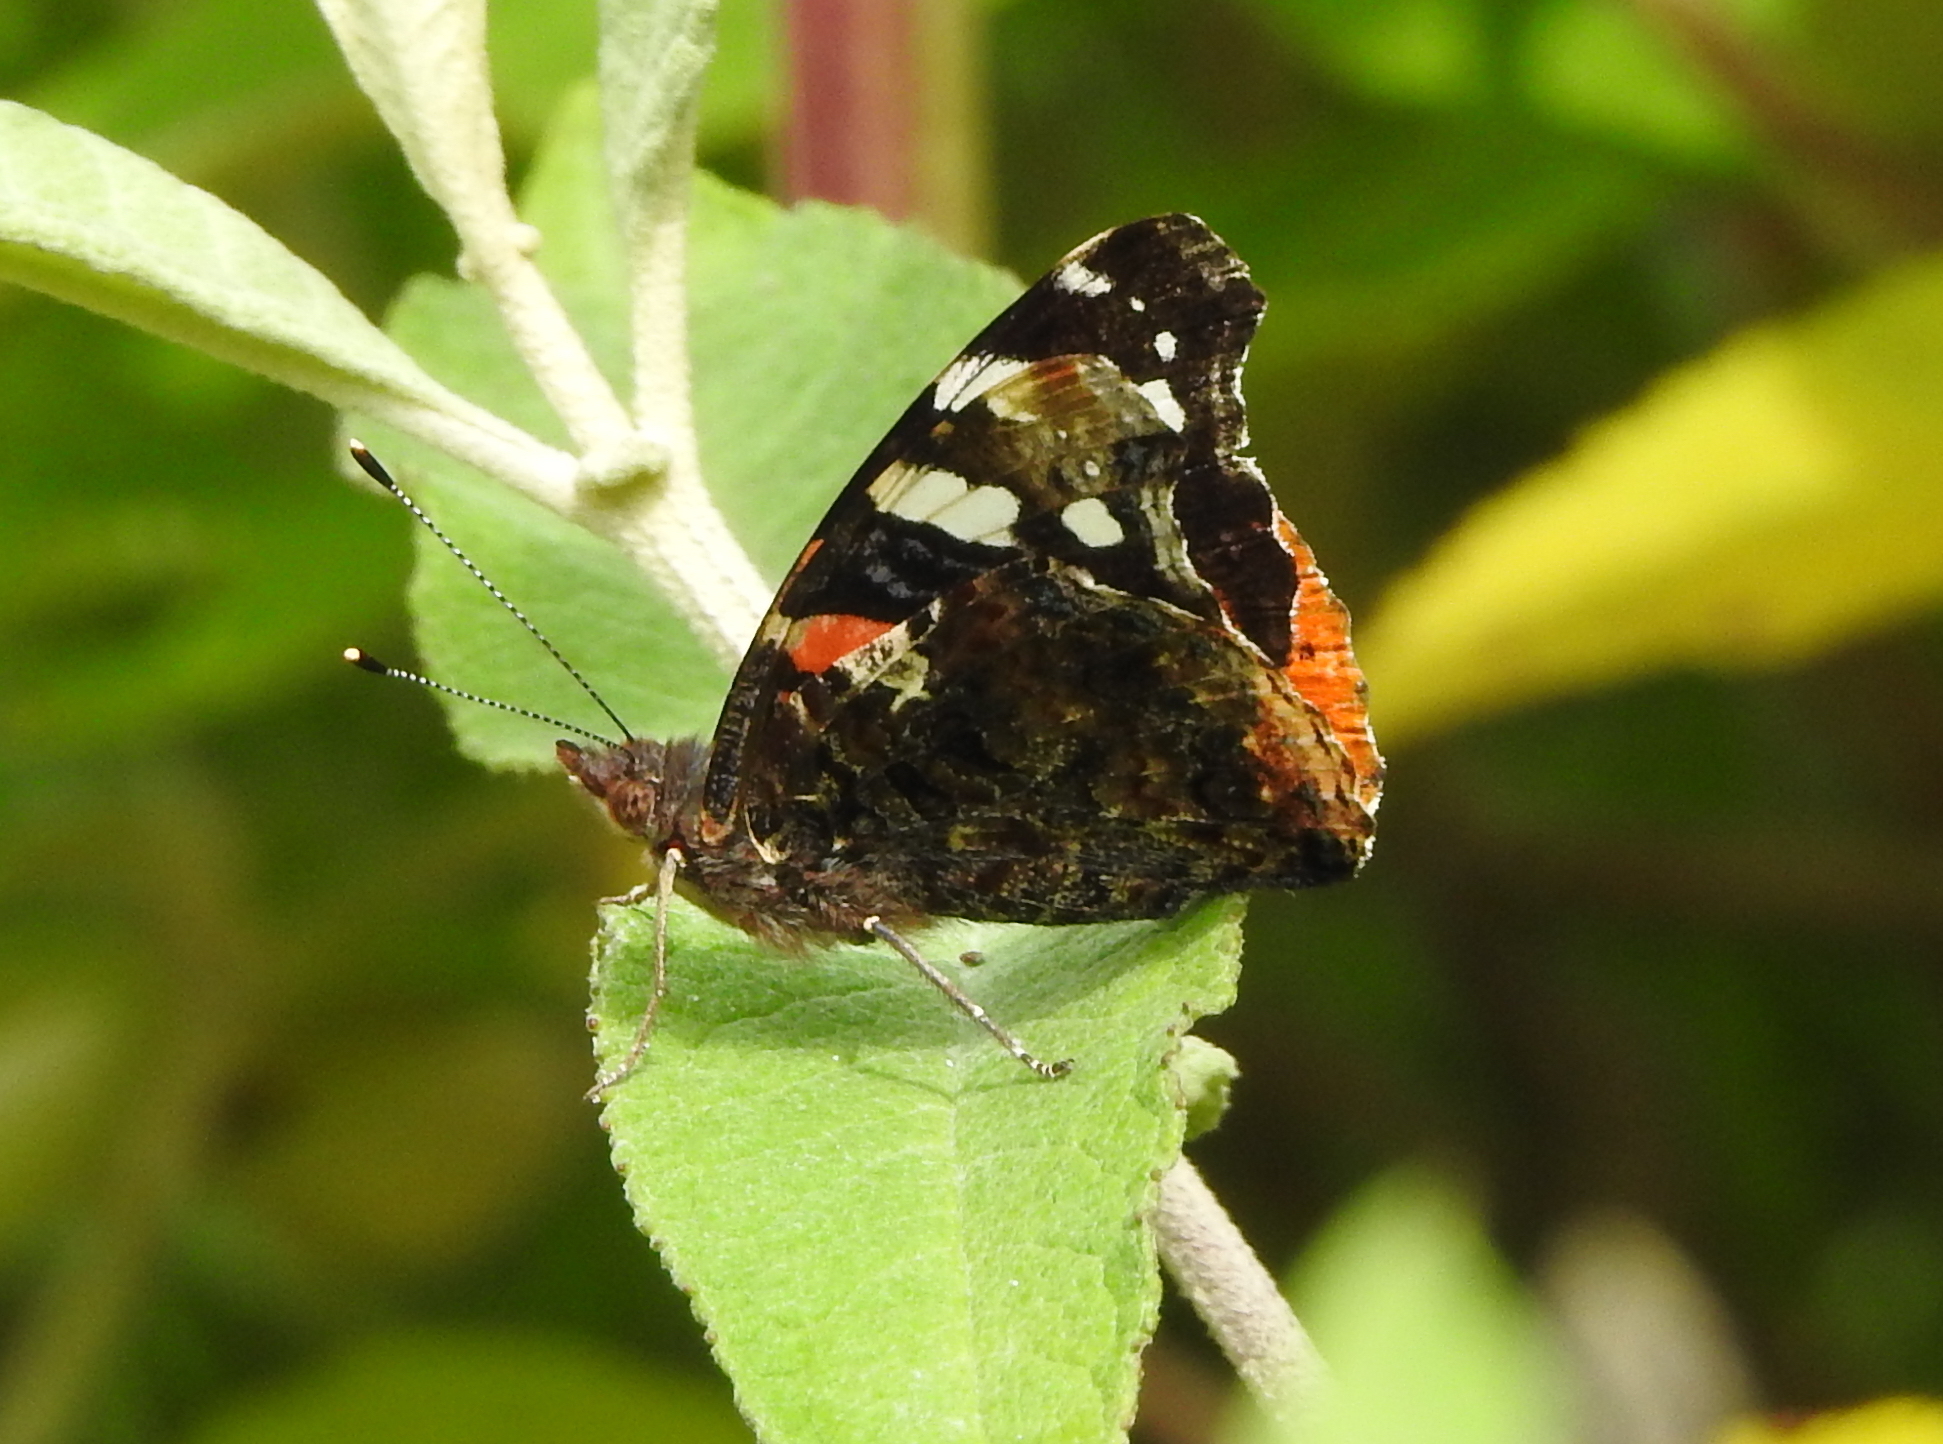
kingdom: Animalia
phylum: Arthropoda
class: Insecta
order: Lepidoptera
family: Nymphalidae
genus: Vanessa
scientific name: Vanessa atalanta
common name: Red admiral
